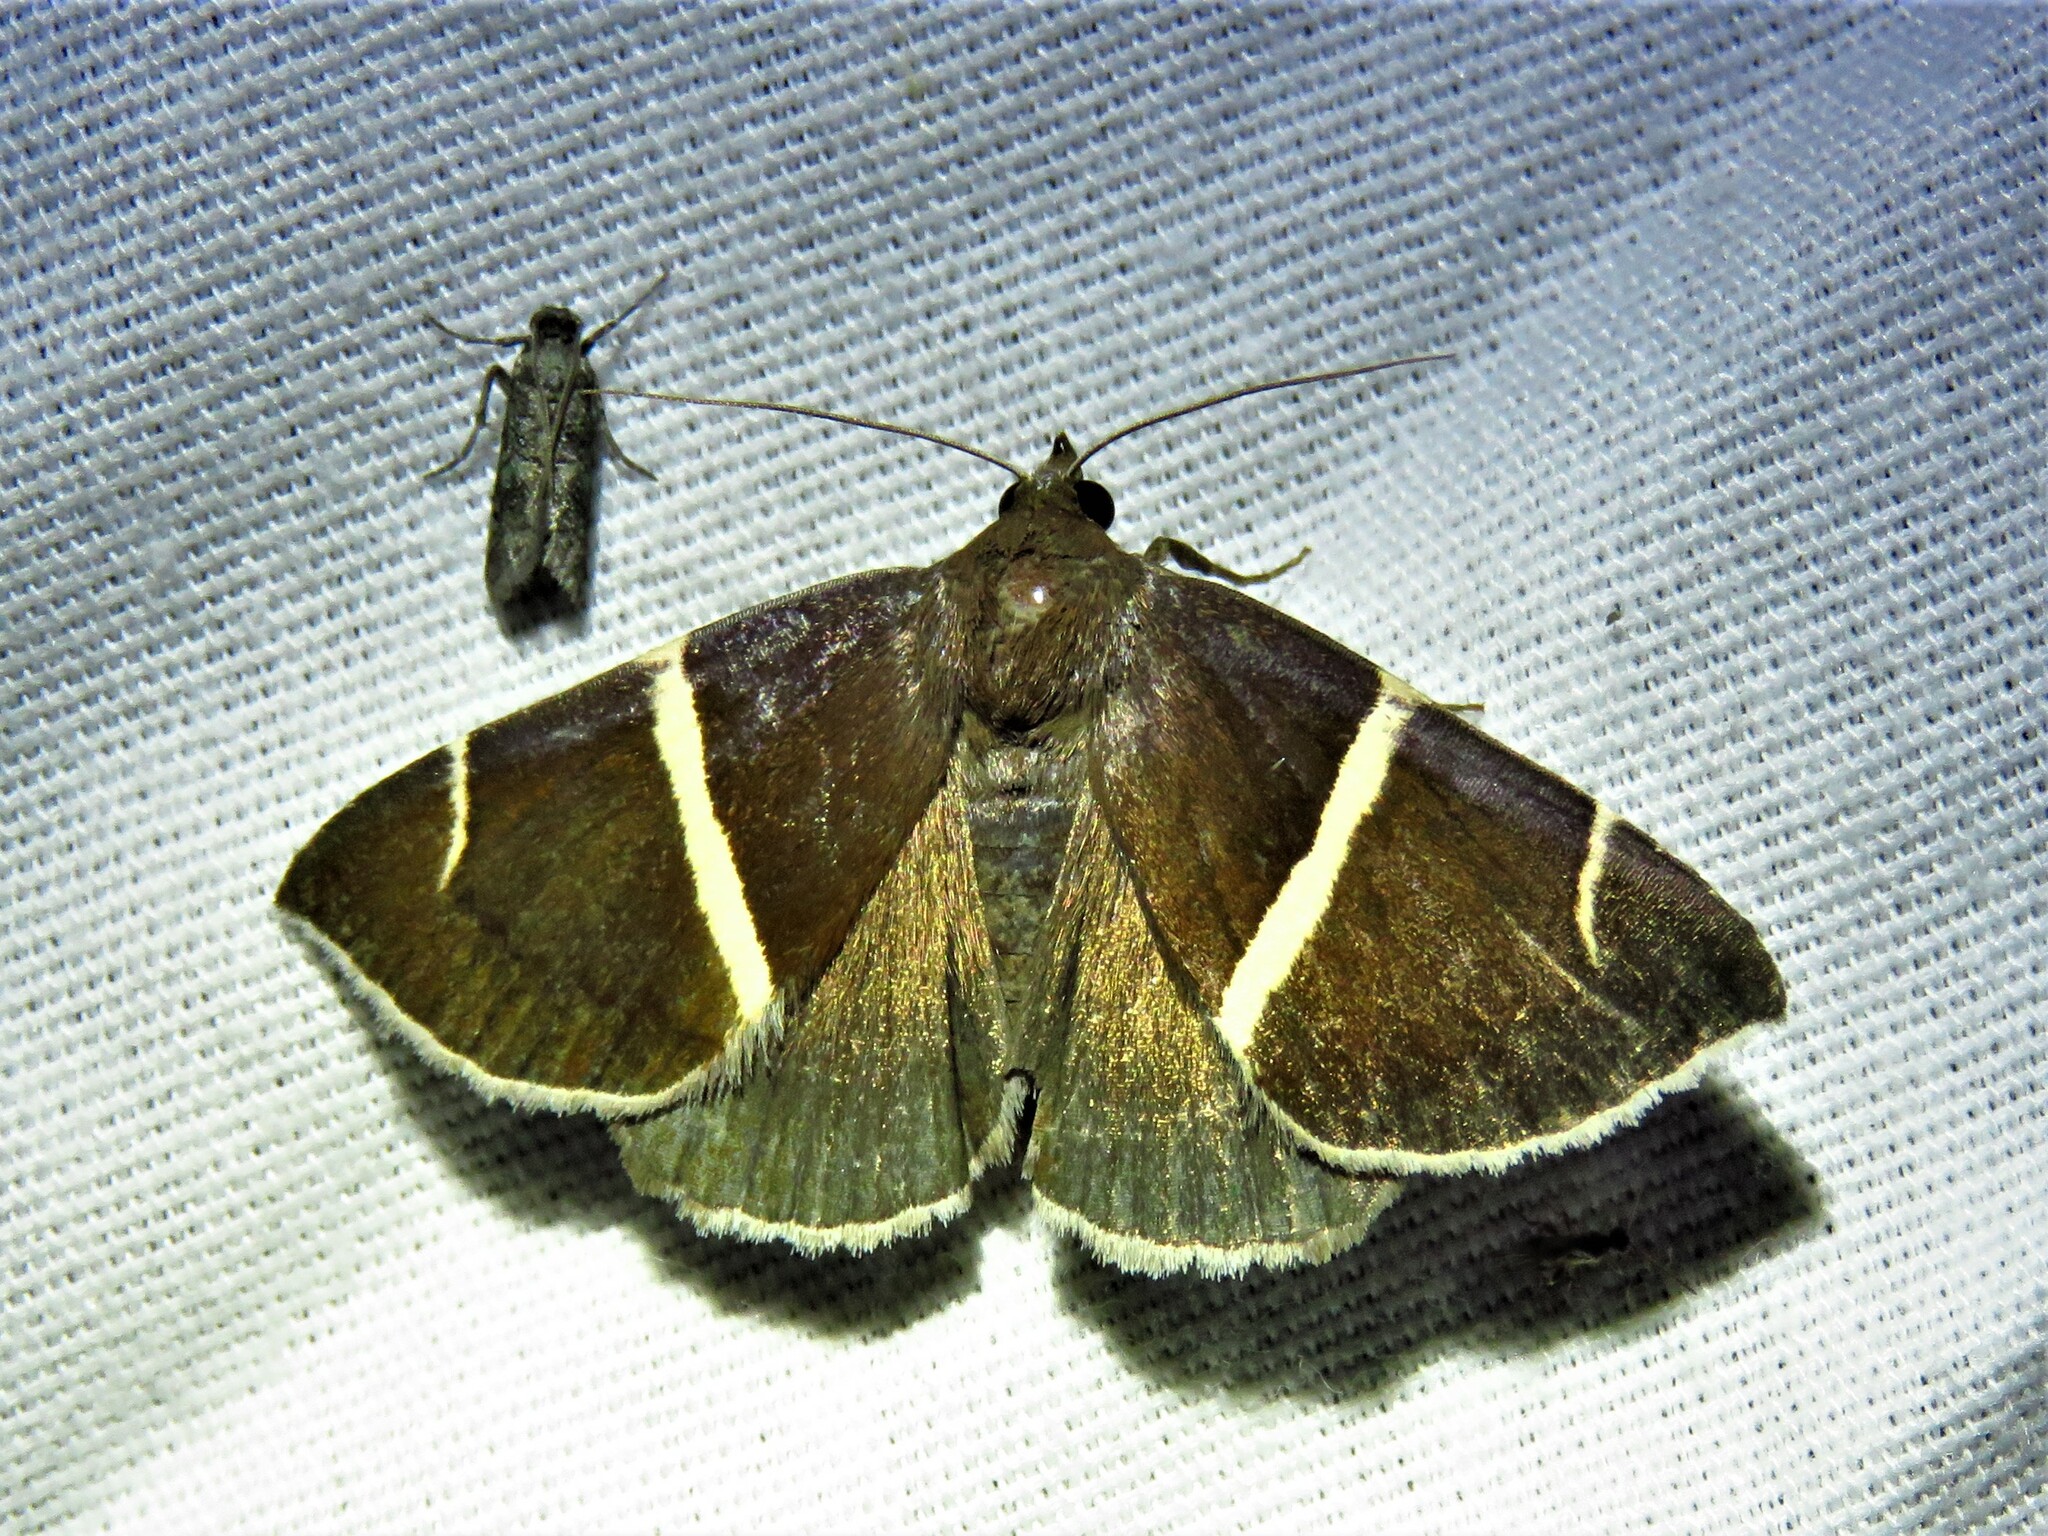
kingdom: Animalia
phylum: Arthropoda
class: Insecta
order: Lepidoptera
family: Erebidae
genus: Argyrostrotis
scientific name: Argyrostrotis anilis
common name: Short-lined chocolate
